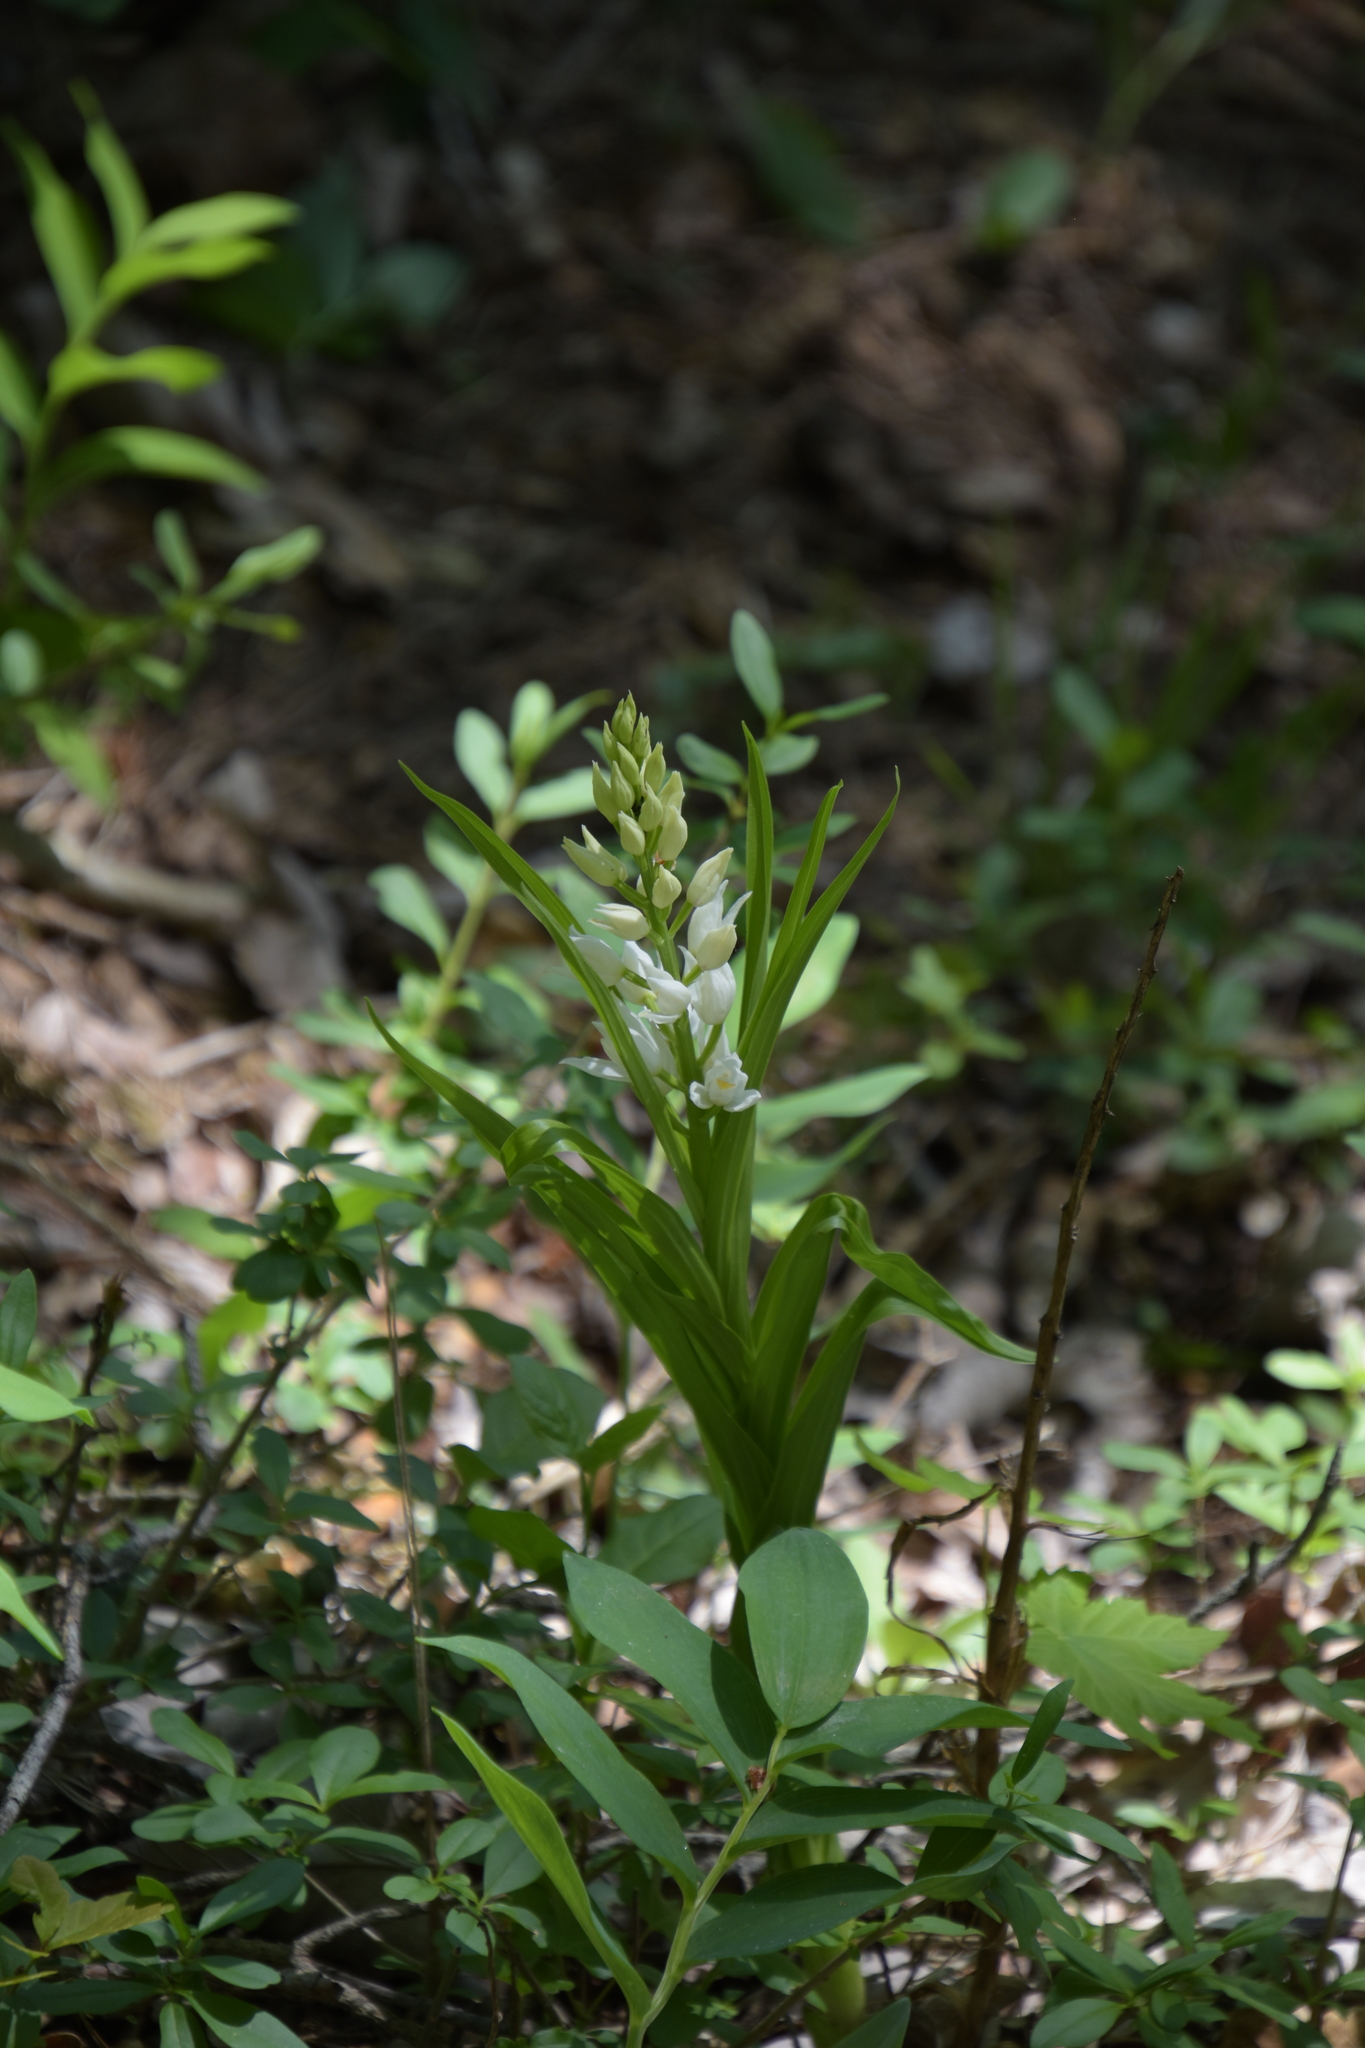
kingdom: Plantae
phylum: Tracheophyta
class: Liliopsida
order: Asparagales
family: Orchidaceae
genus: Cephalanthera
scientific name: Cephalanthera longifolia
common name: Narrow-leaved helleborine
